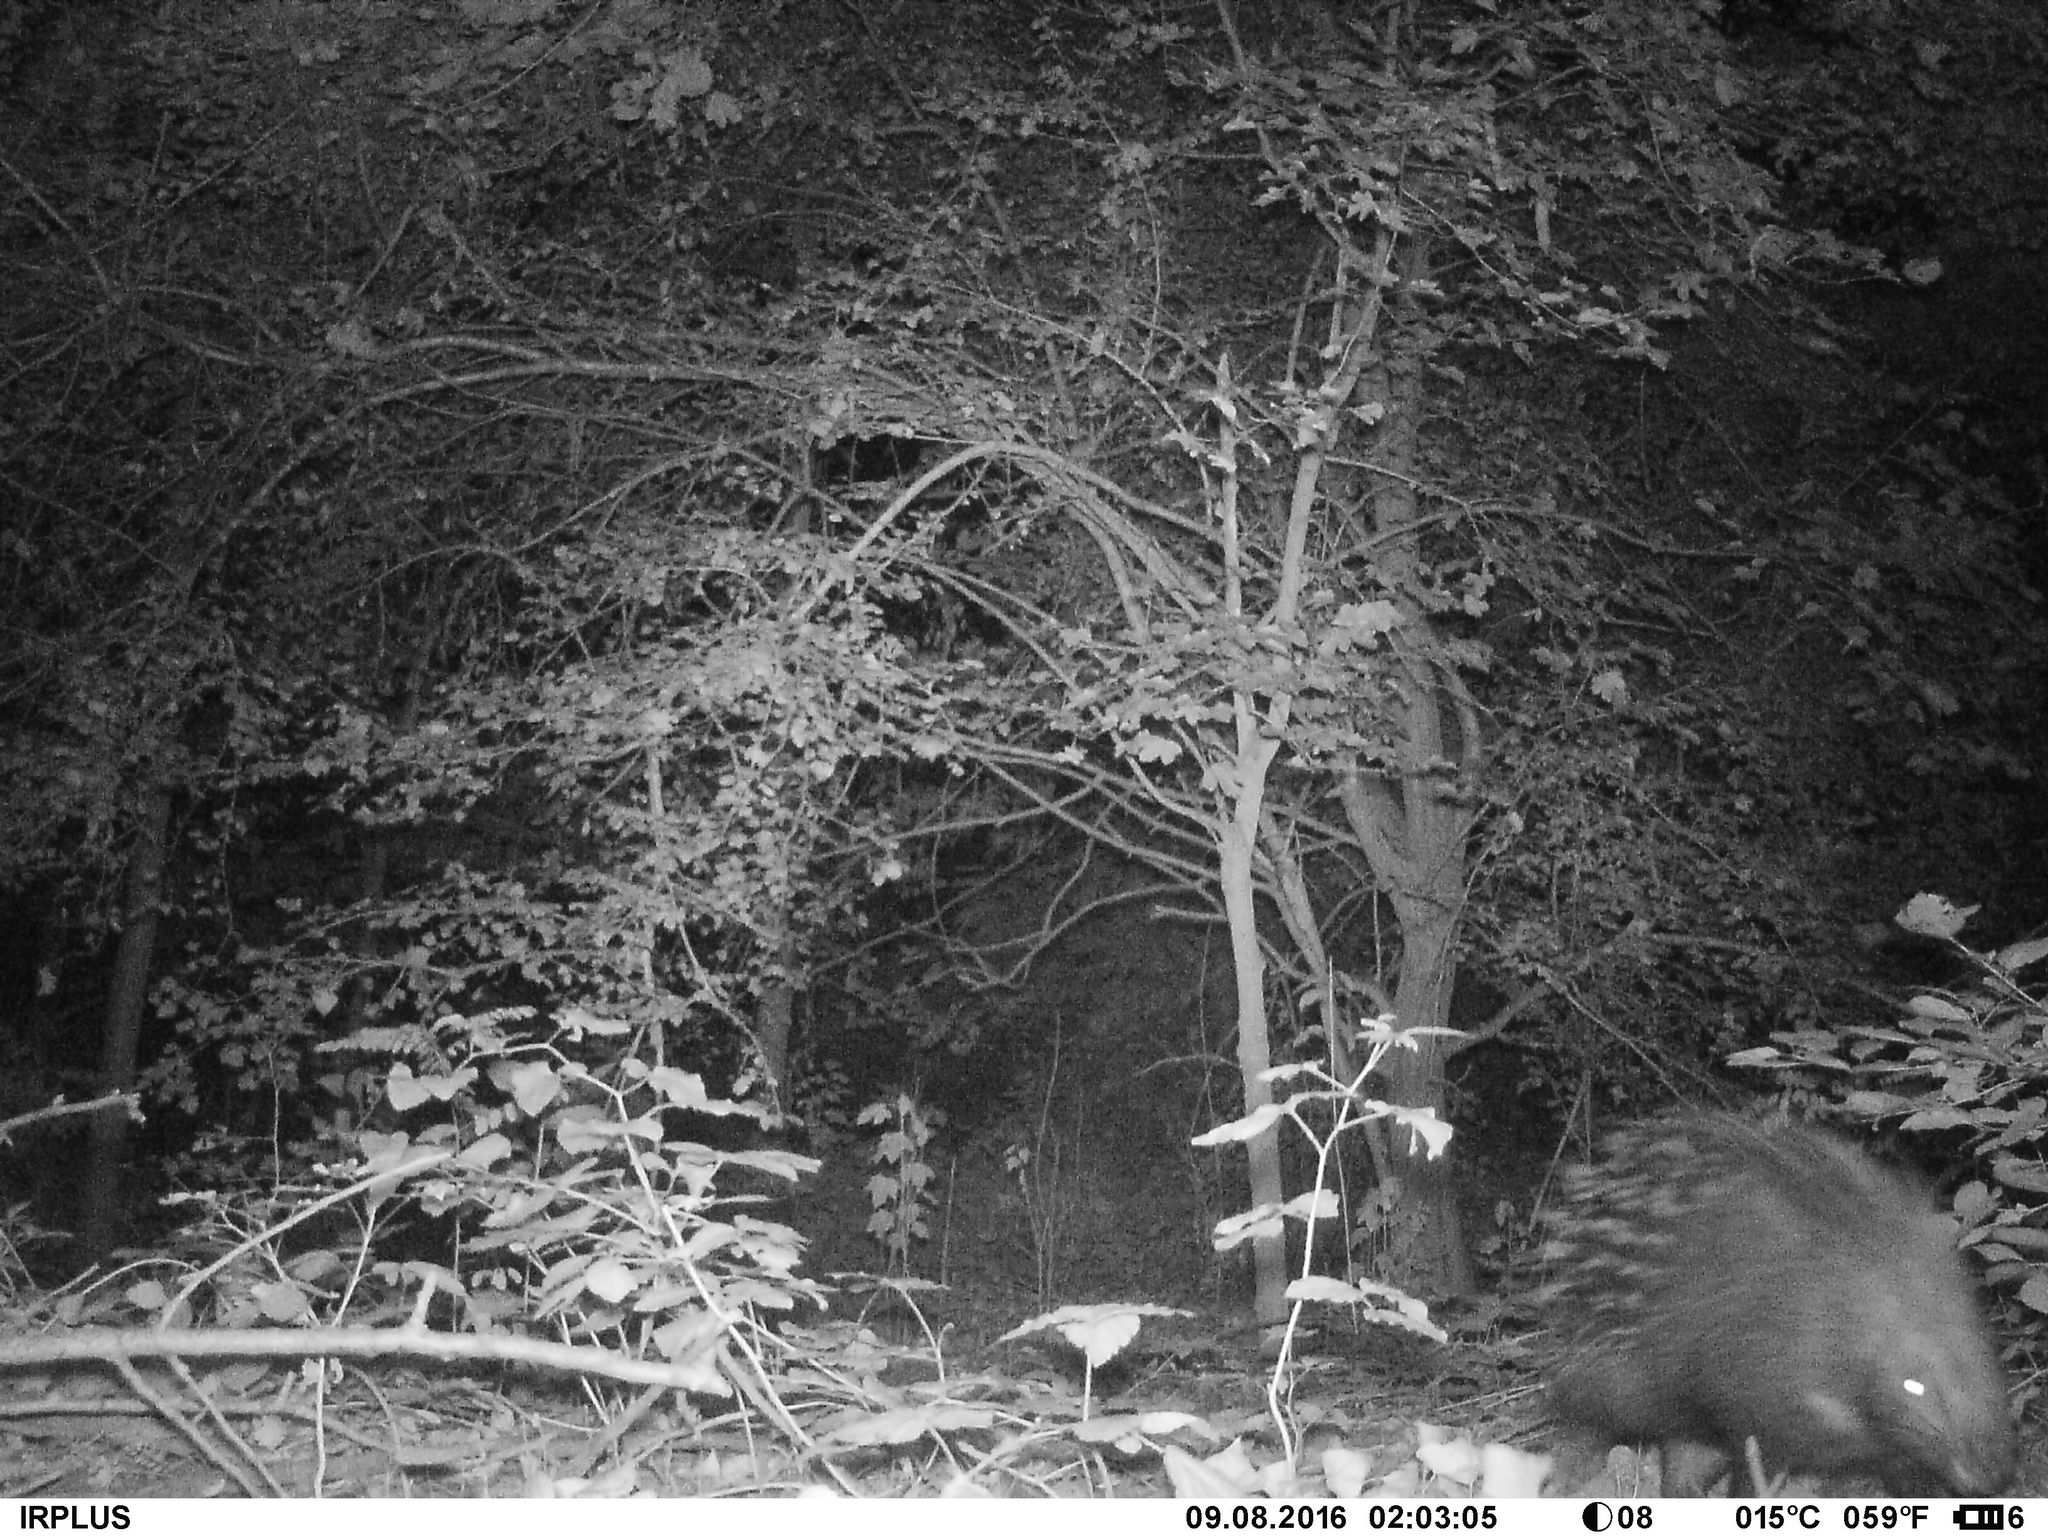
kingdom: Animalia
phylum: Chordata
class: Mammalia
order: Rodentia
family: Hystricidae
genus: Hystrix
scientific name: Hystrix cristata
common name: Crested porcupine
